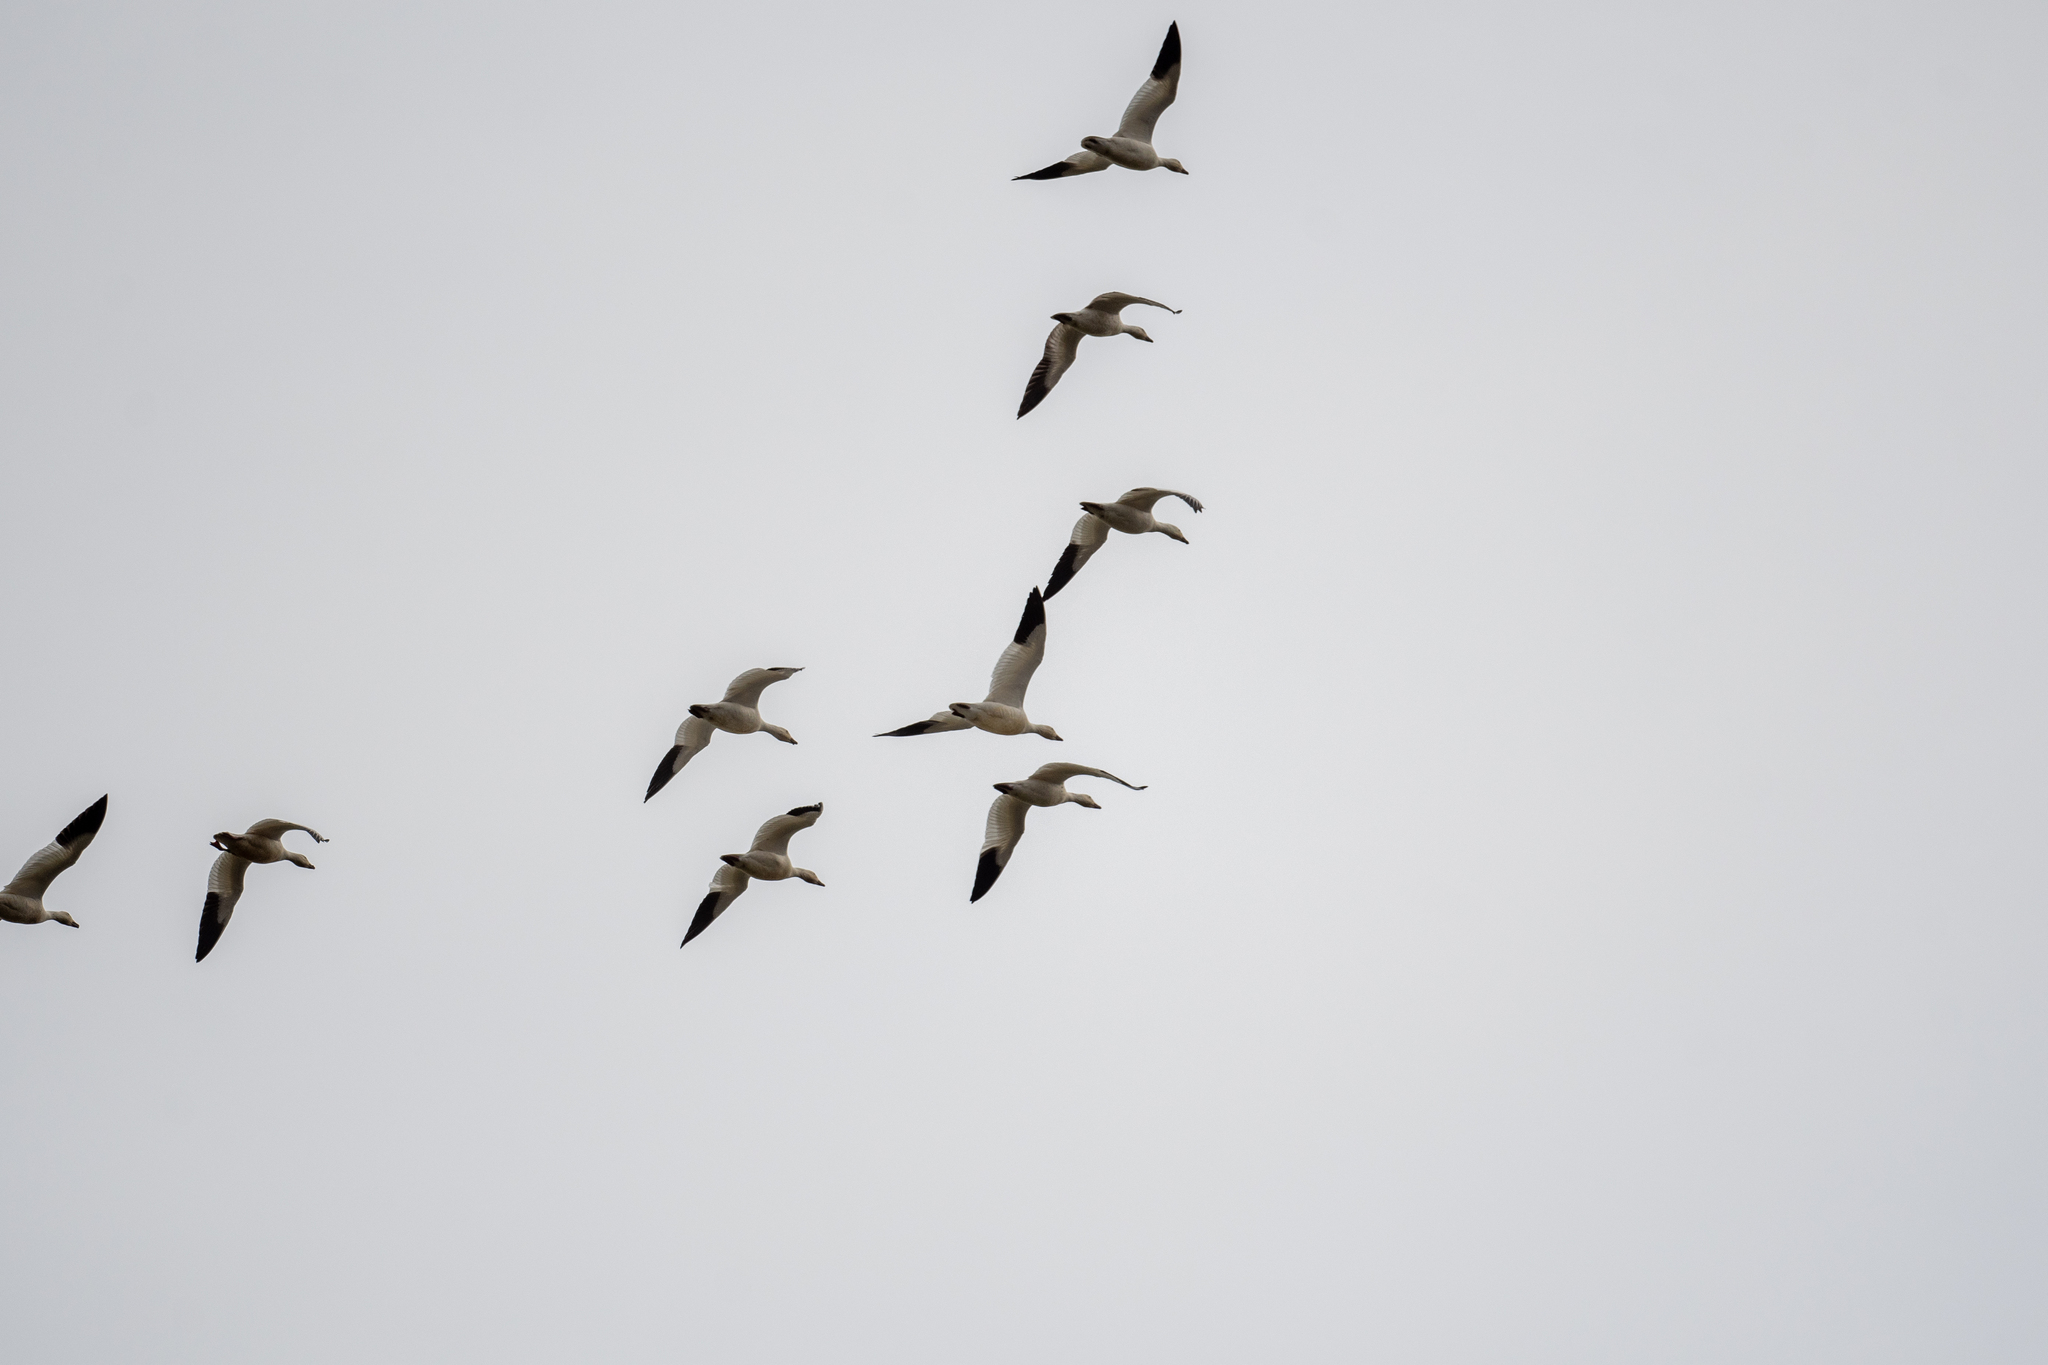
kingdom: Animalia
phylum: Chordata
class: Aves
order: Anseriformes
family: Anatidae
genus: Anser
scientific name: Anser caerulescens
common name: Snow goose
